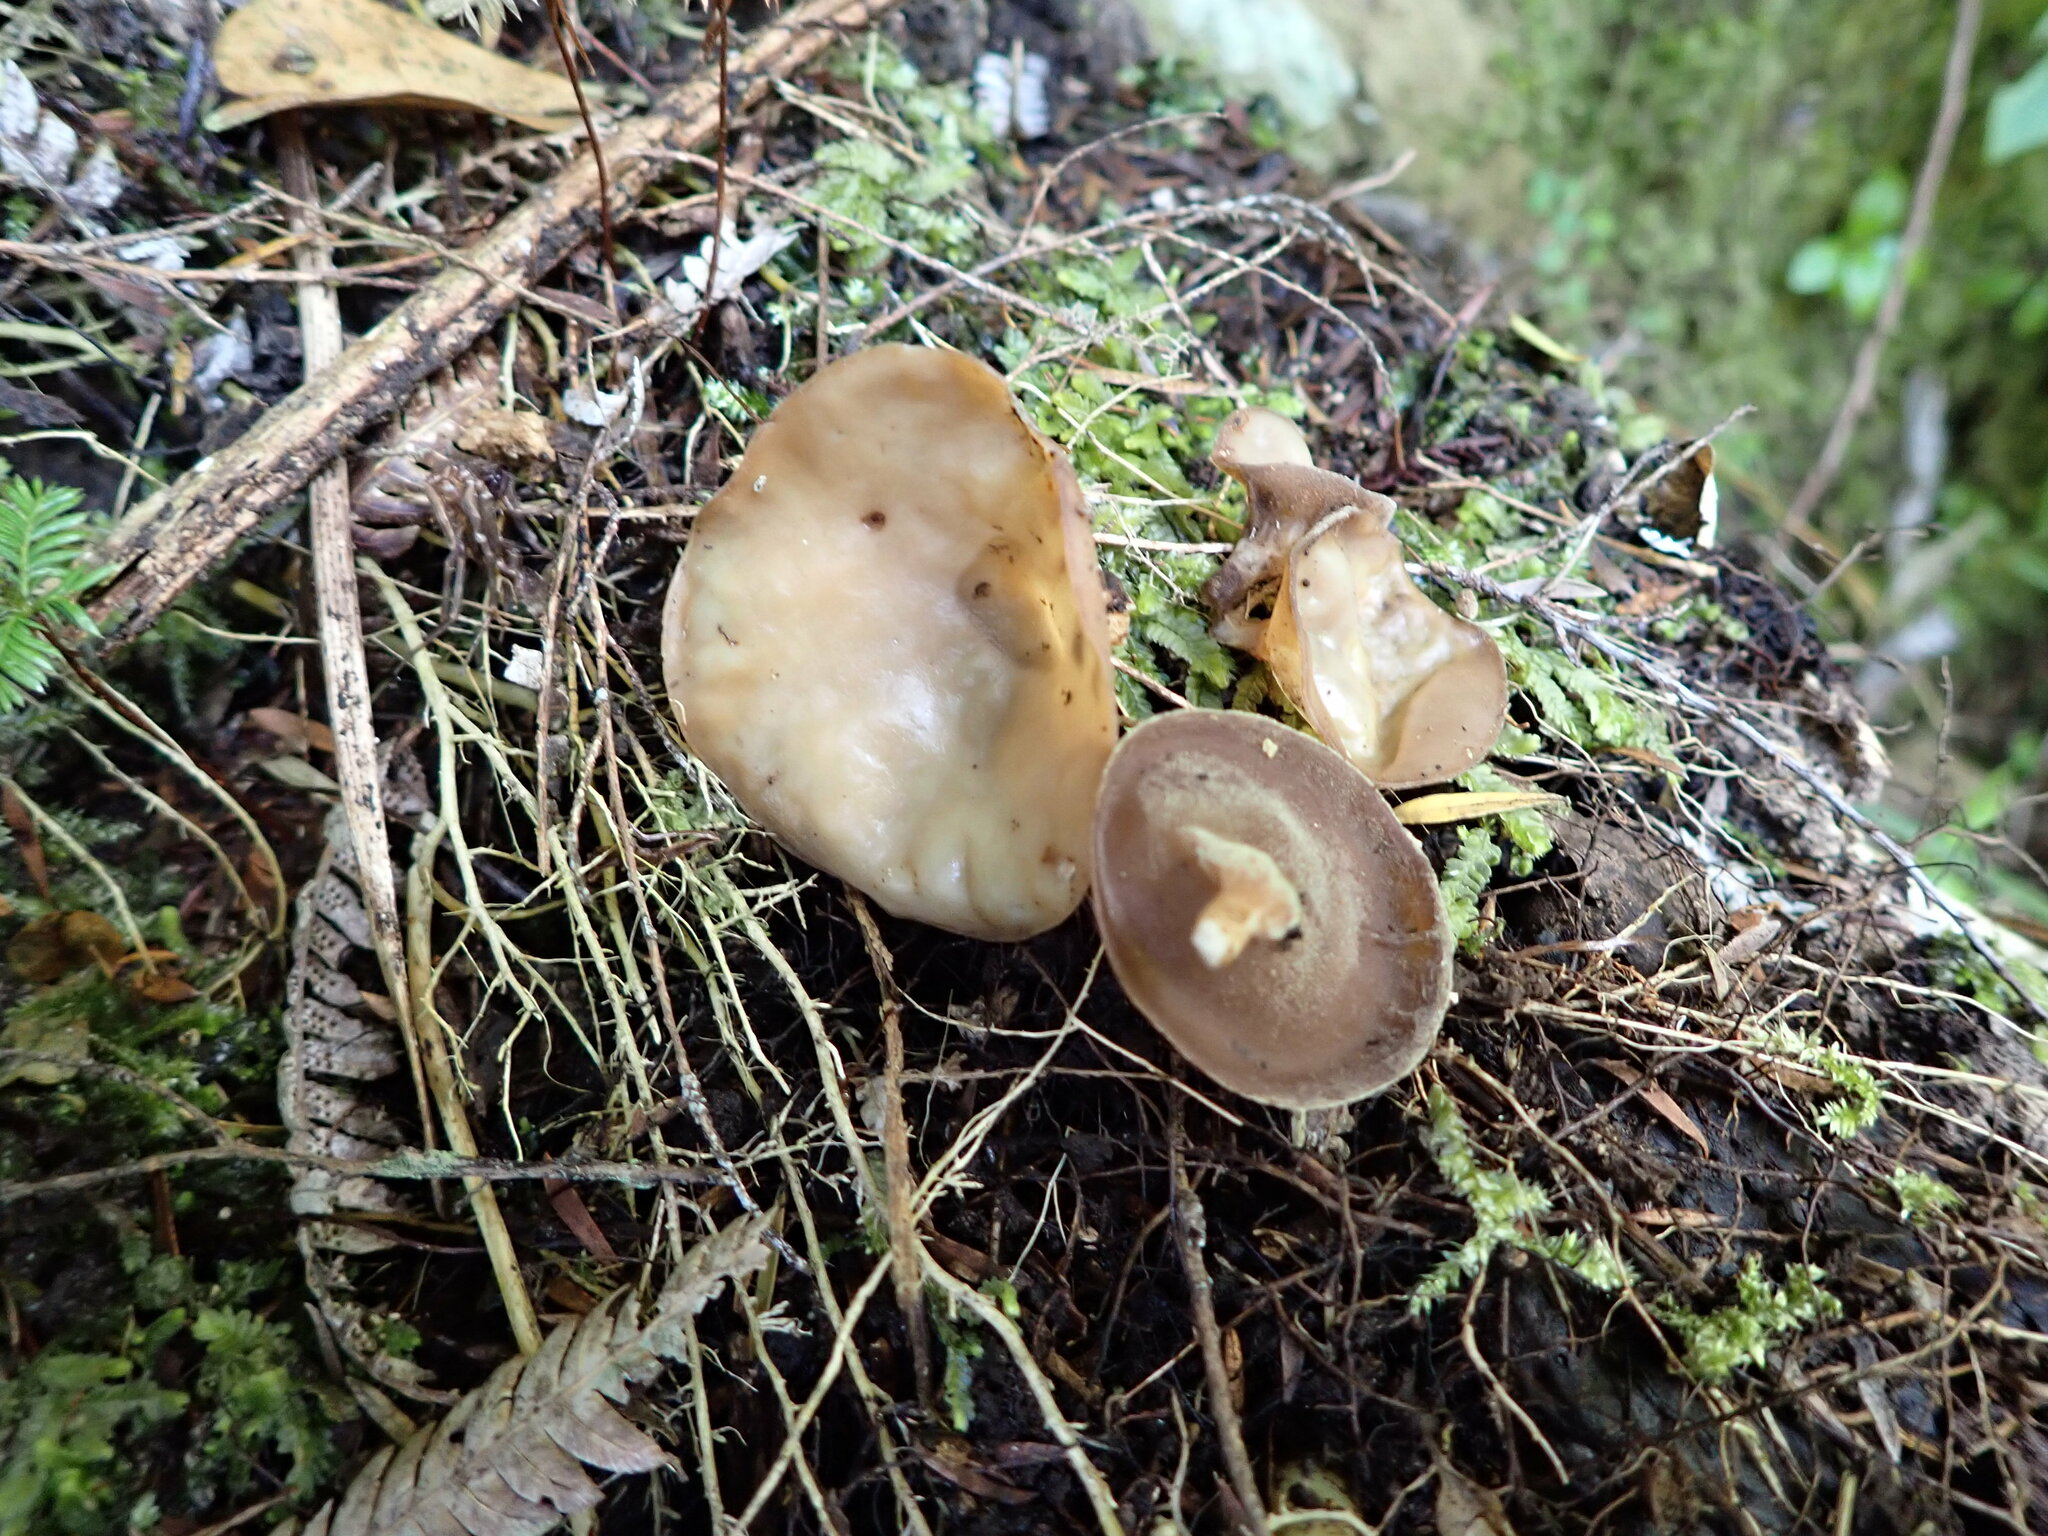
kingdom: Fungi
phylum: Basidiomycota
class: Agaricomycetes
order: Auriculariales
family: Auriculariaceae
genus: Auricularia
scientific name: Auricularia cornea
